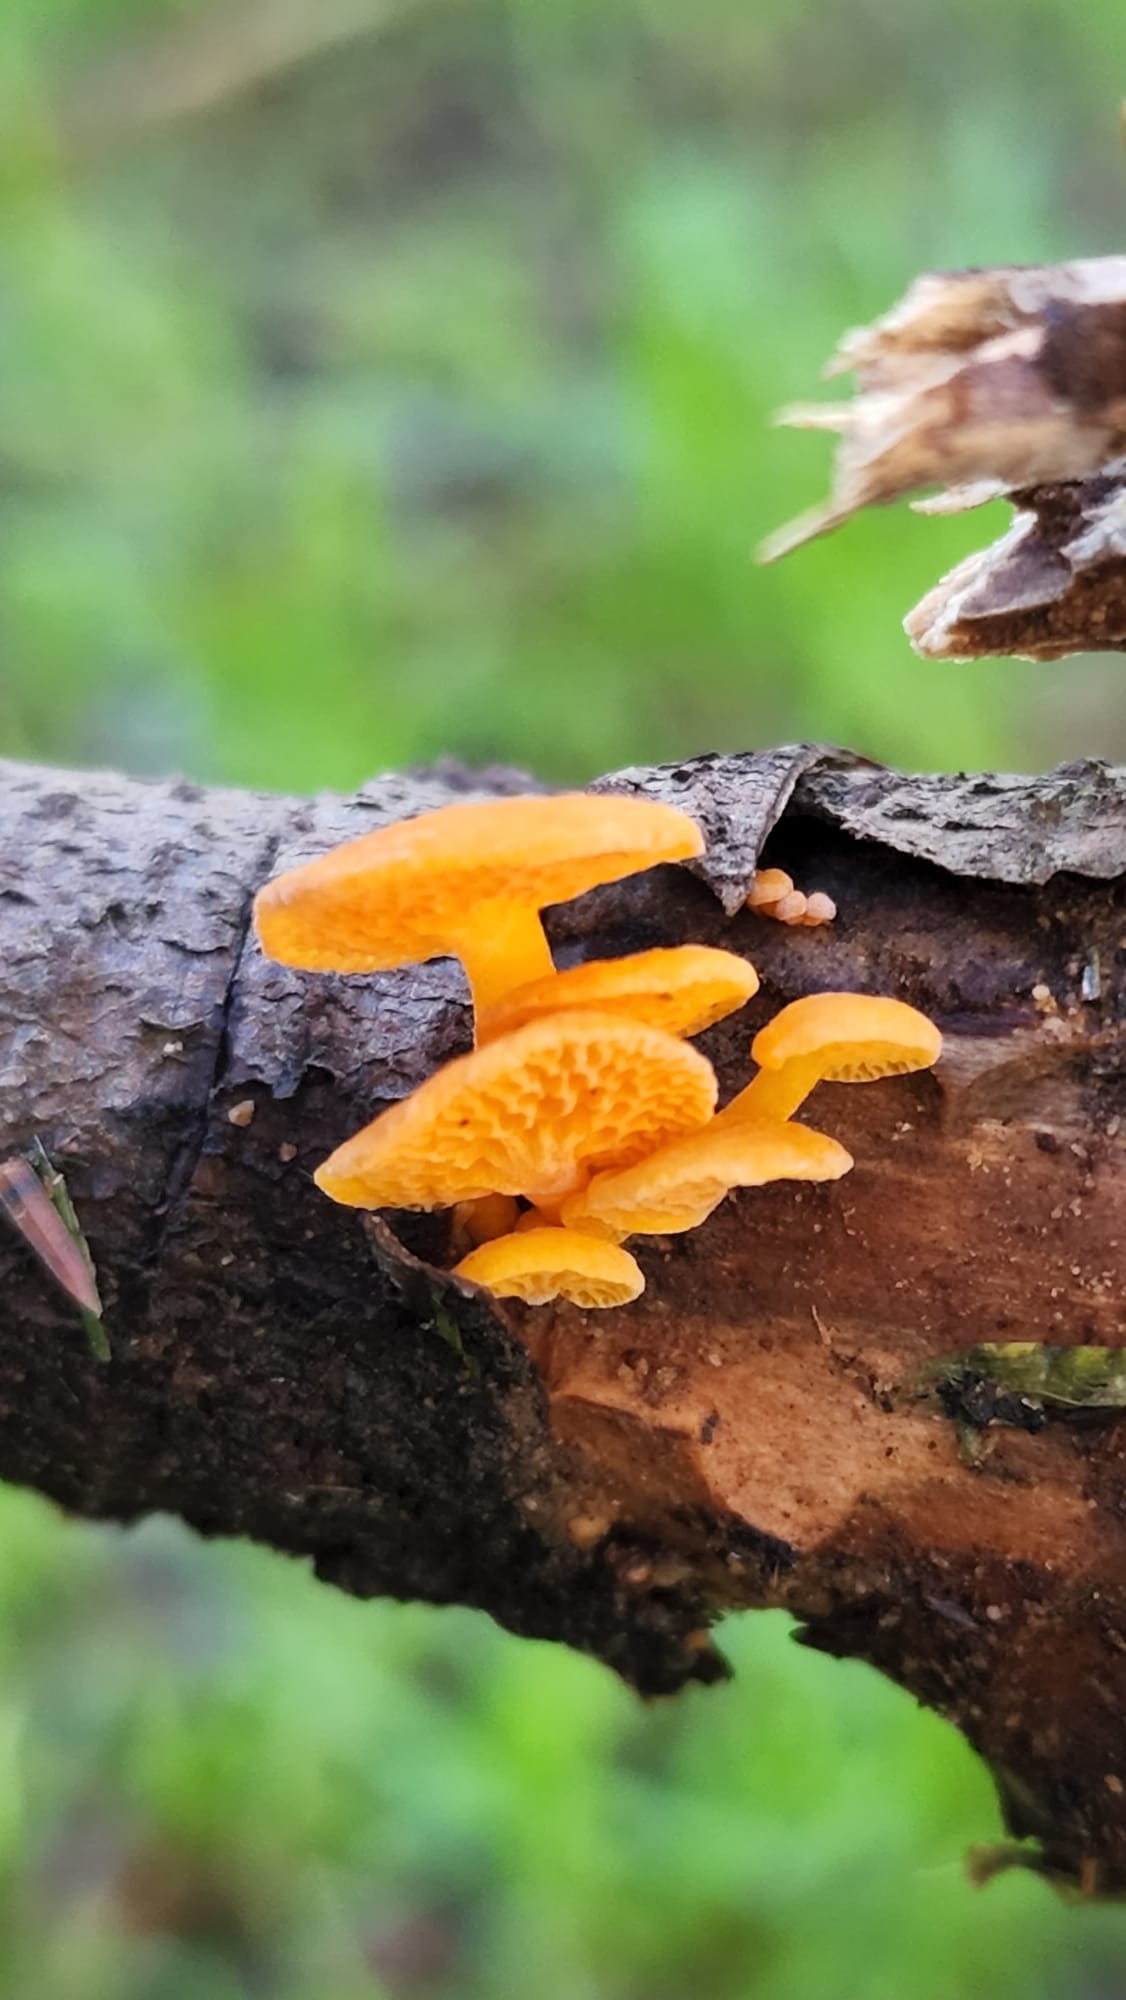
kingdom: Fungi
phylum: Basidiomycota
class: Agaricomycetes
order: Agaricales
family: Mycenaceae
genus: Favolaschia
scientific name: Favolaschia claudopus
